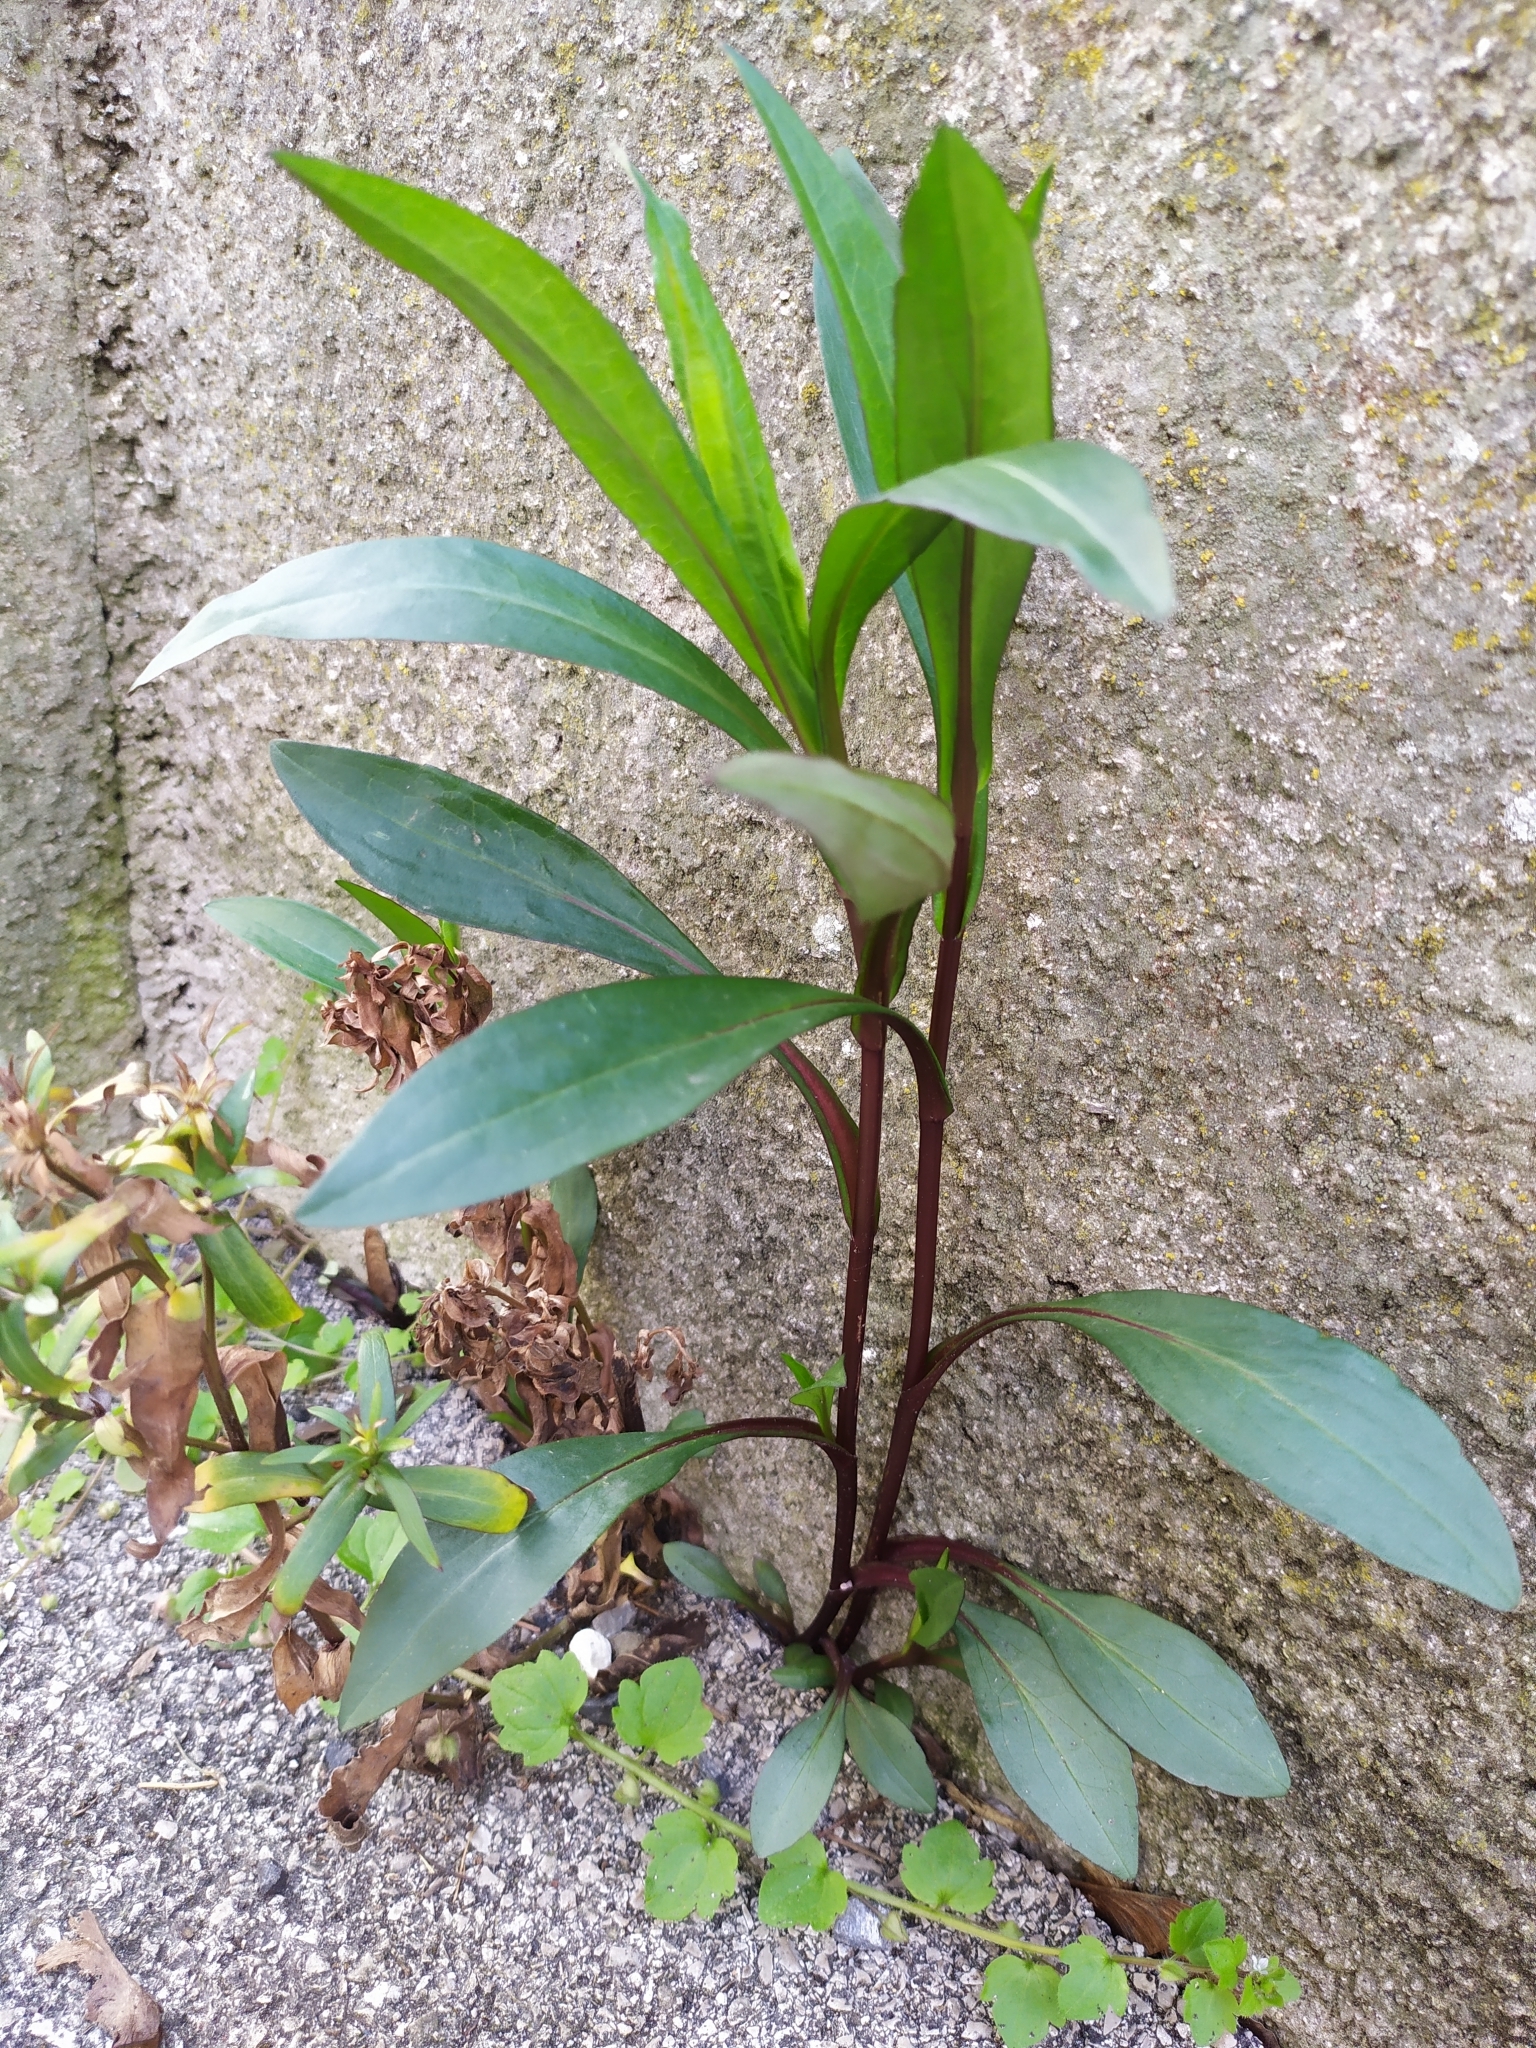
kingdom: Plantae
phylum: Tracheophyta
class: Magnoliopsida
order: Asterales
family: Asteraceae
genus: Solidago
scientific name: Solidago gigantea
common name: Giant goldenrod
